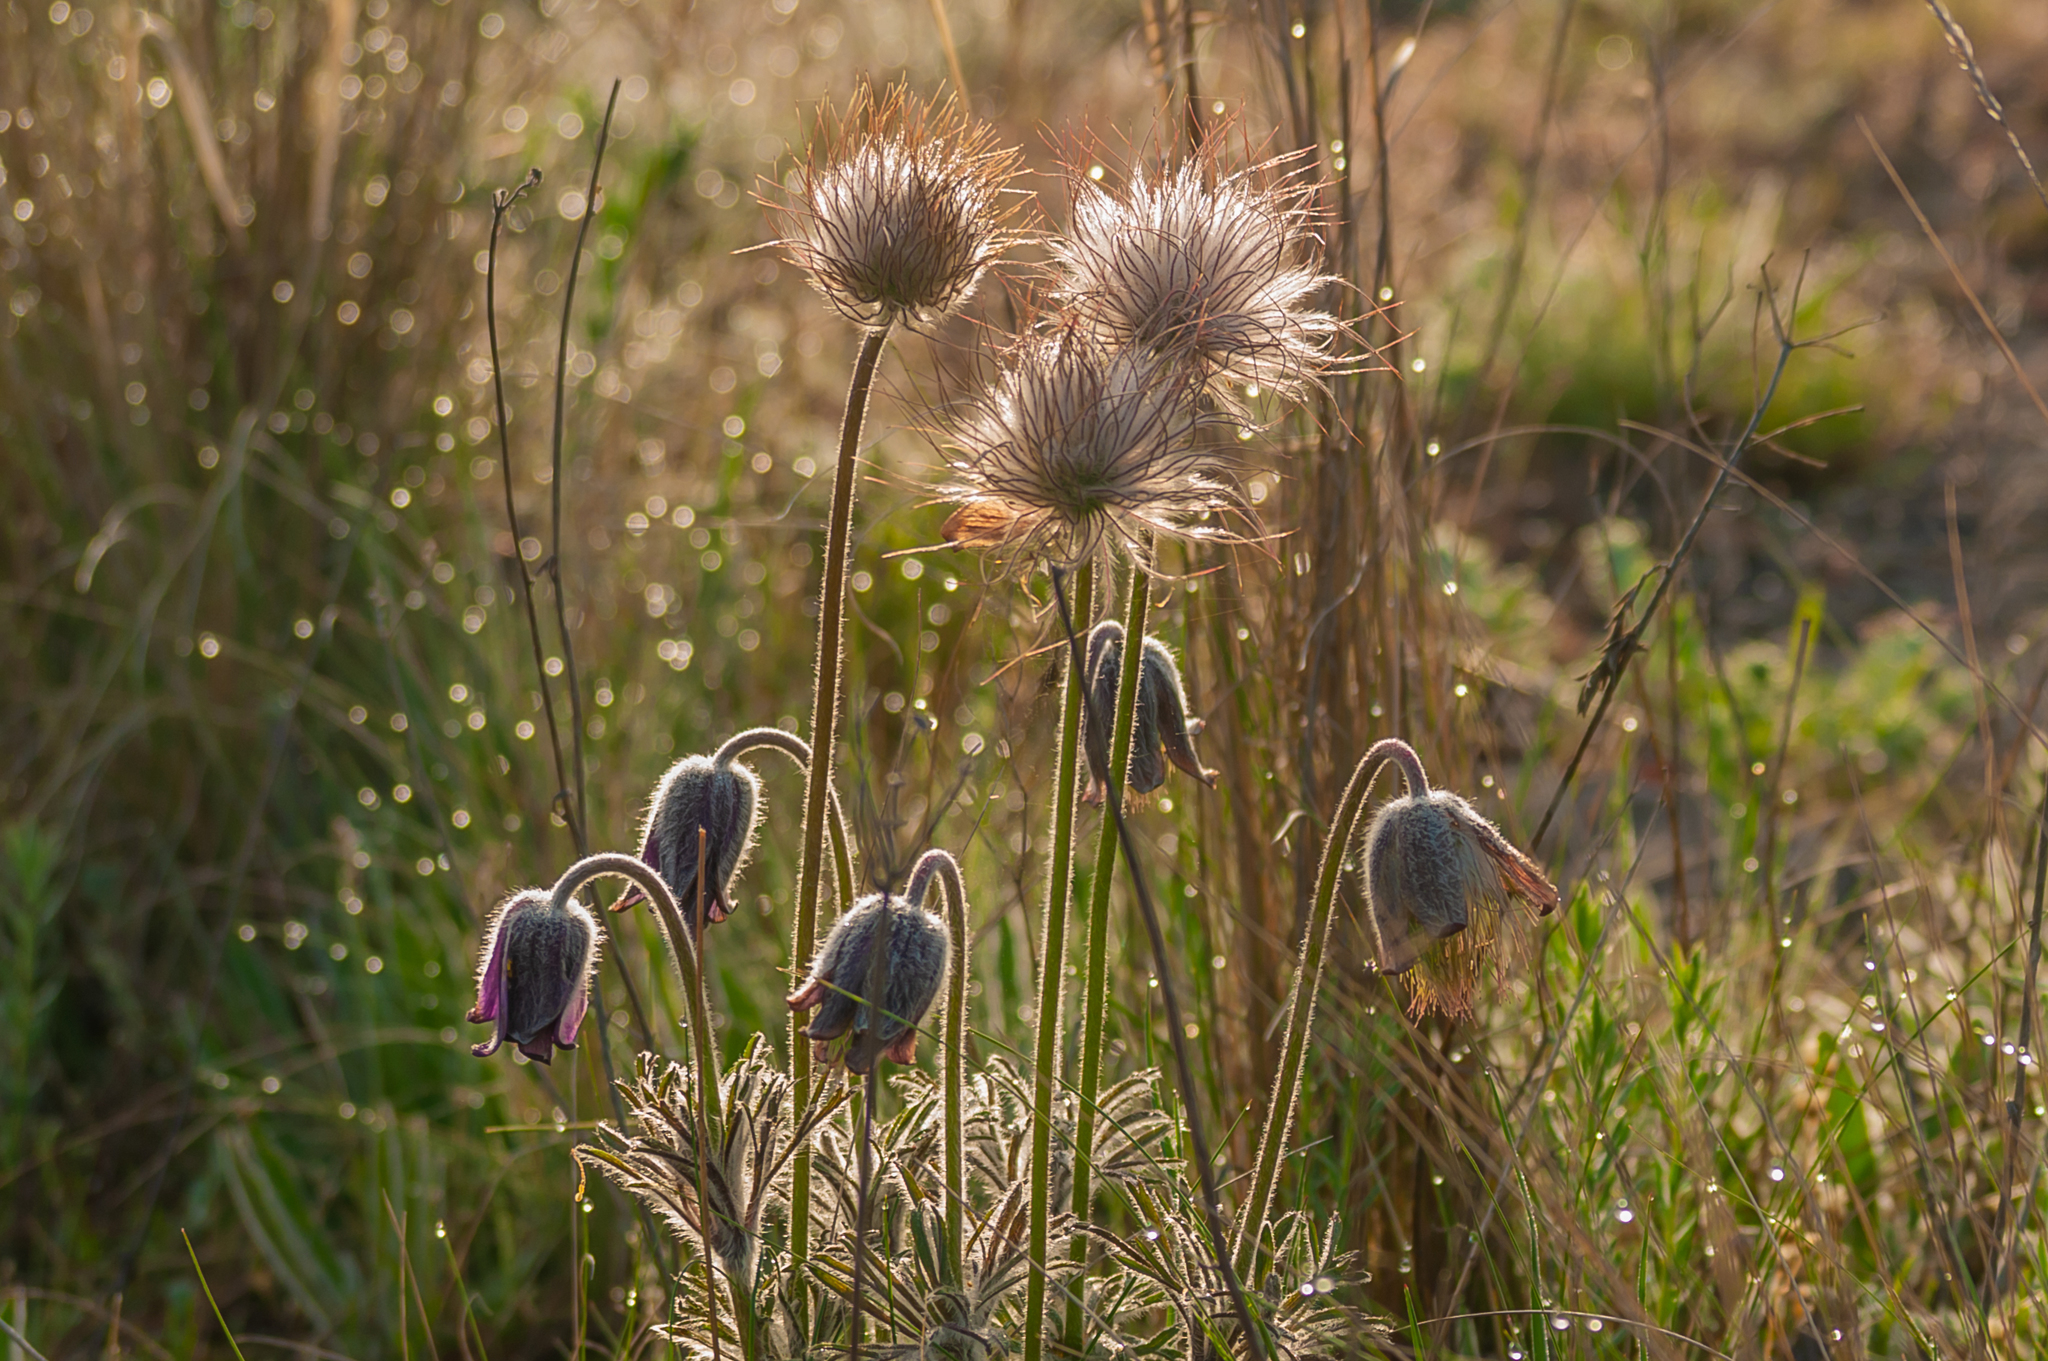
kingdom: Plantae
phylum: Tracheophyta
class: Magnoliopsida
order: Ranunculales
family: Ranunculaceae
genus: Pulsatilla
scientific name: Pulsatilla pratensis
